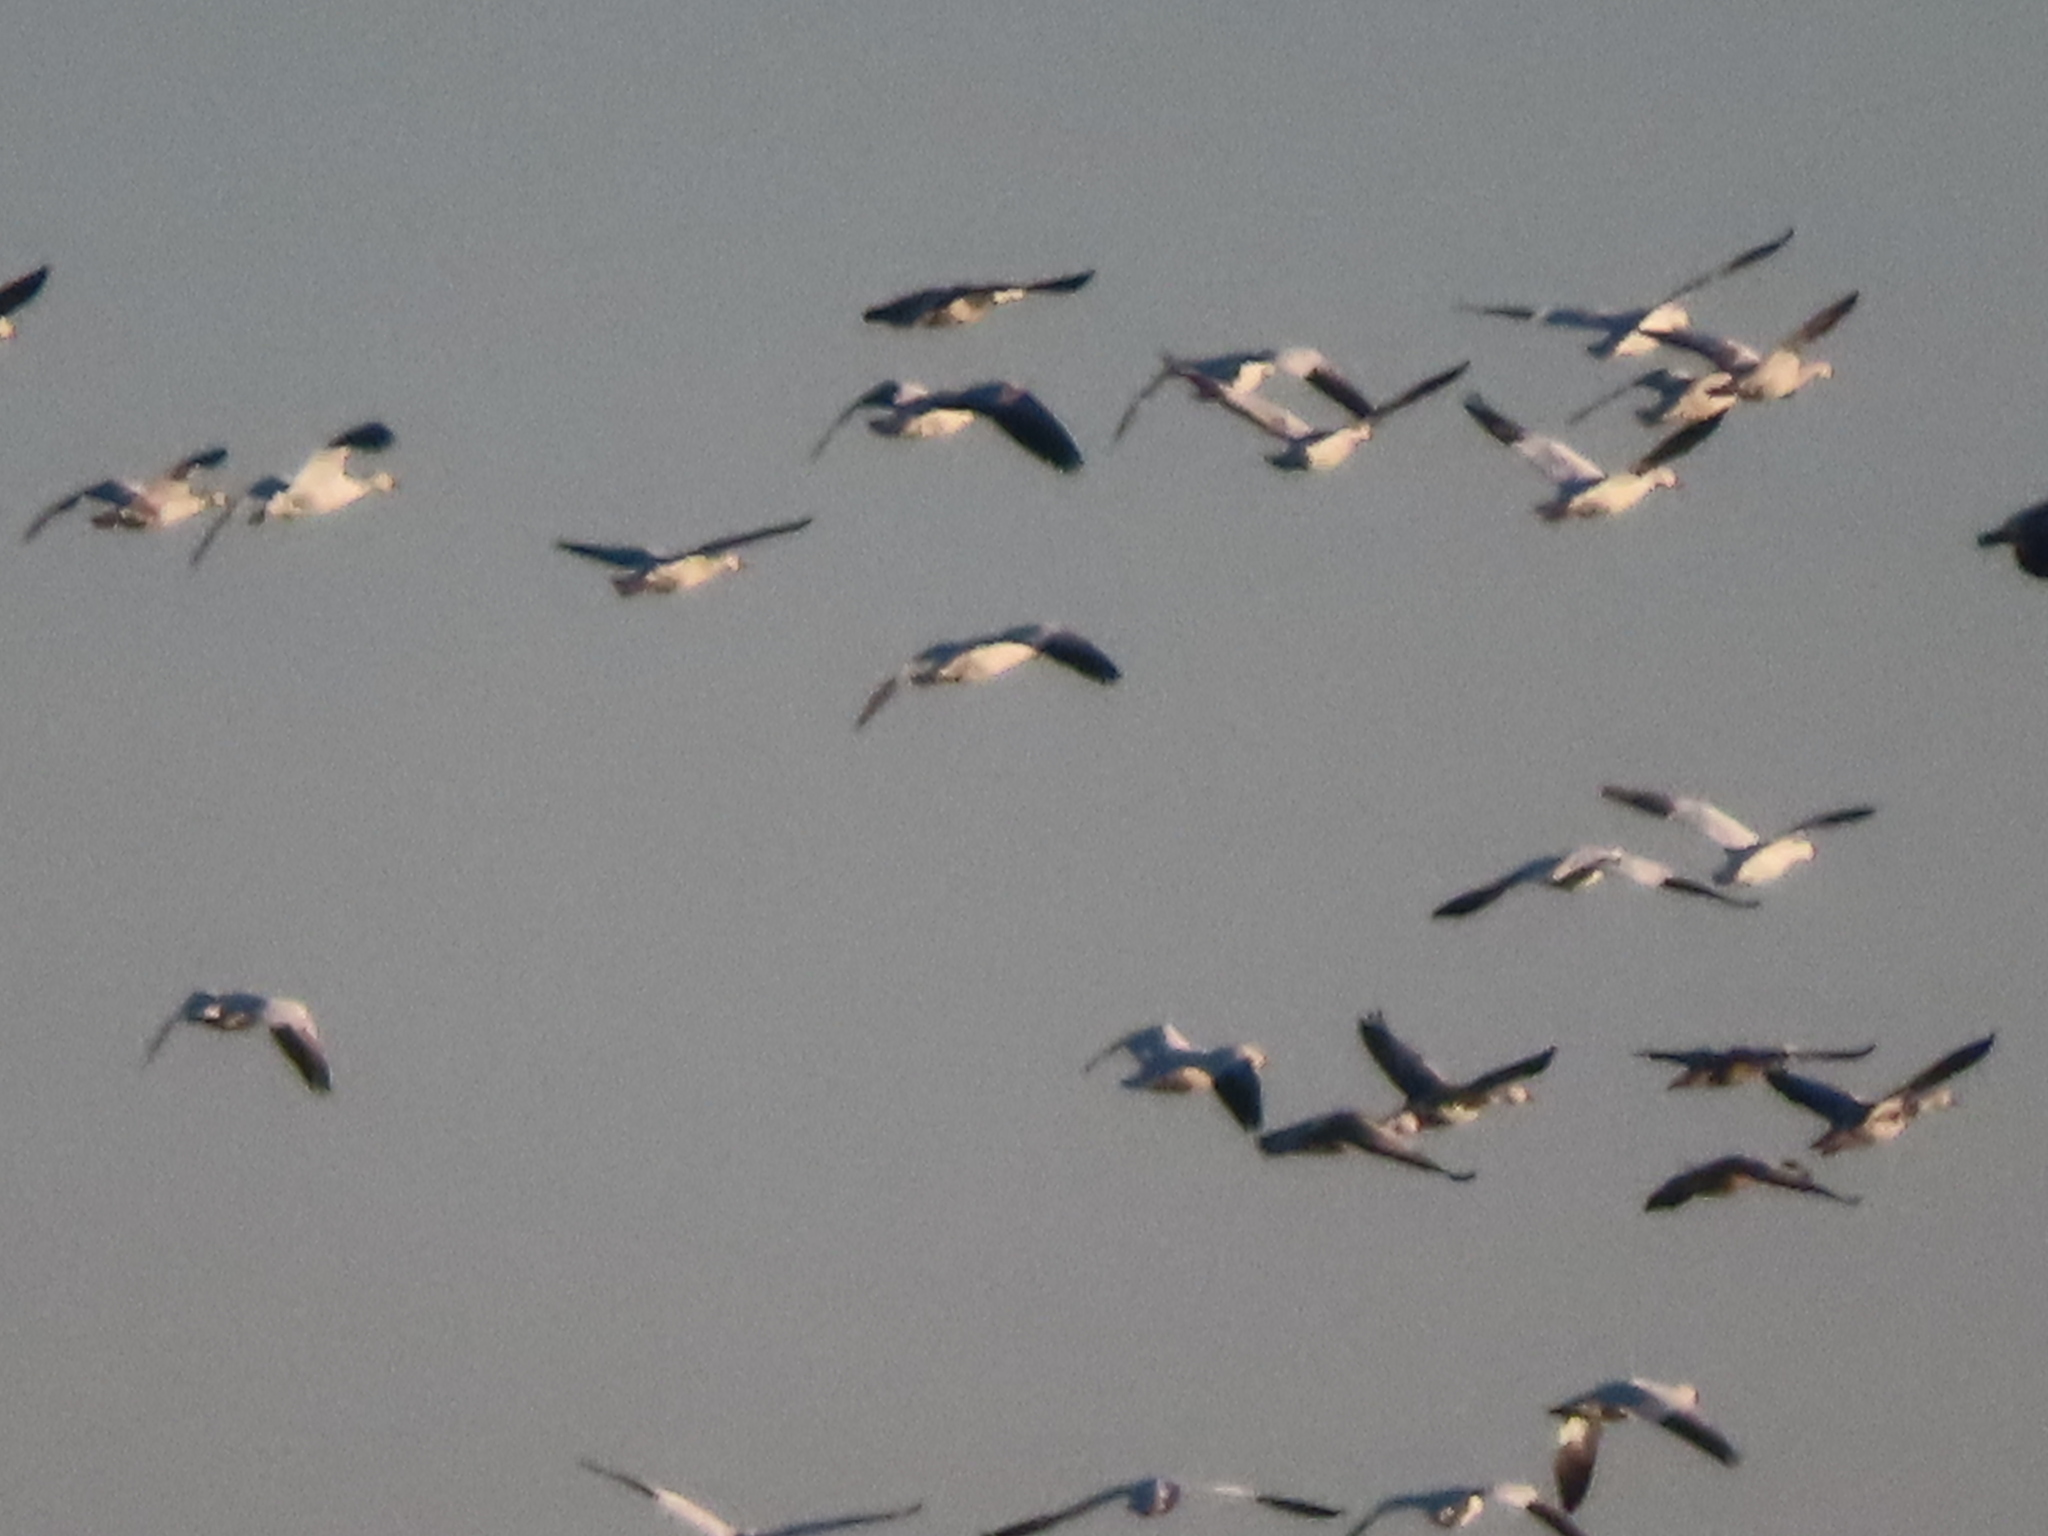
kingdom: Animalia
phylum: Chordata
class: Aves
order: Anseriformes
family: Anatidae
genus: Anser
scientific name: Anser caerulescens
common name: Snow goose
